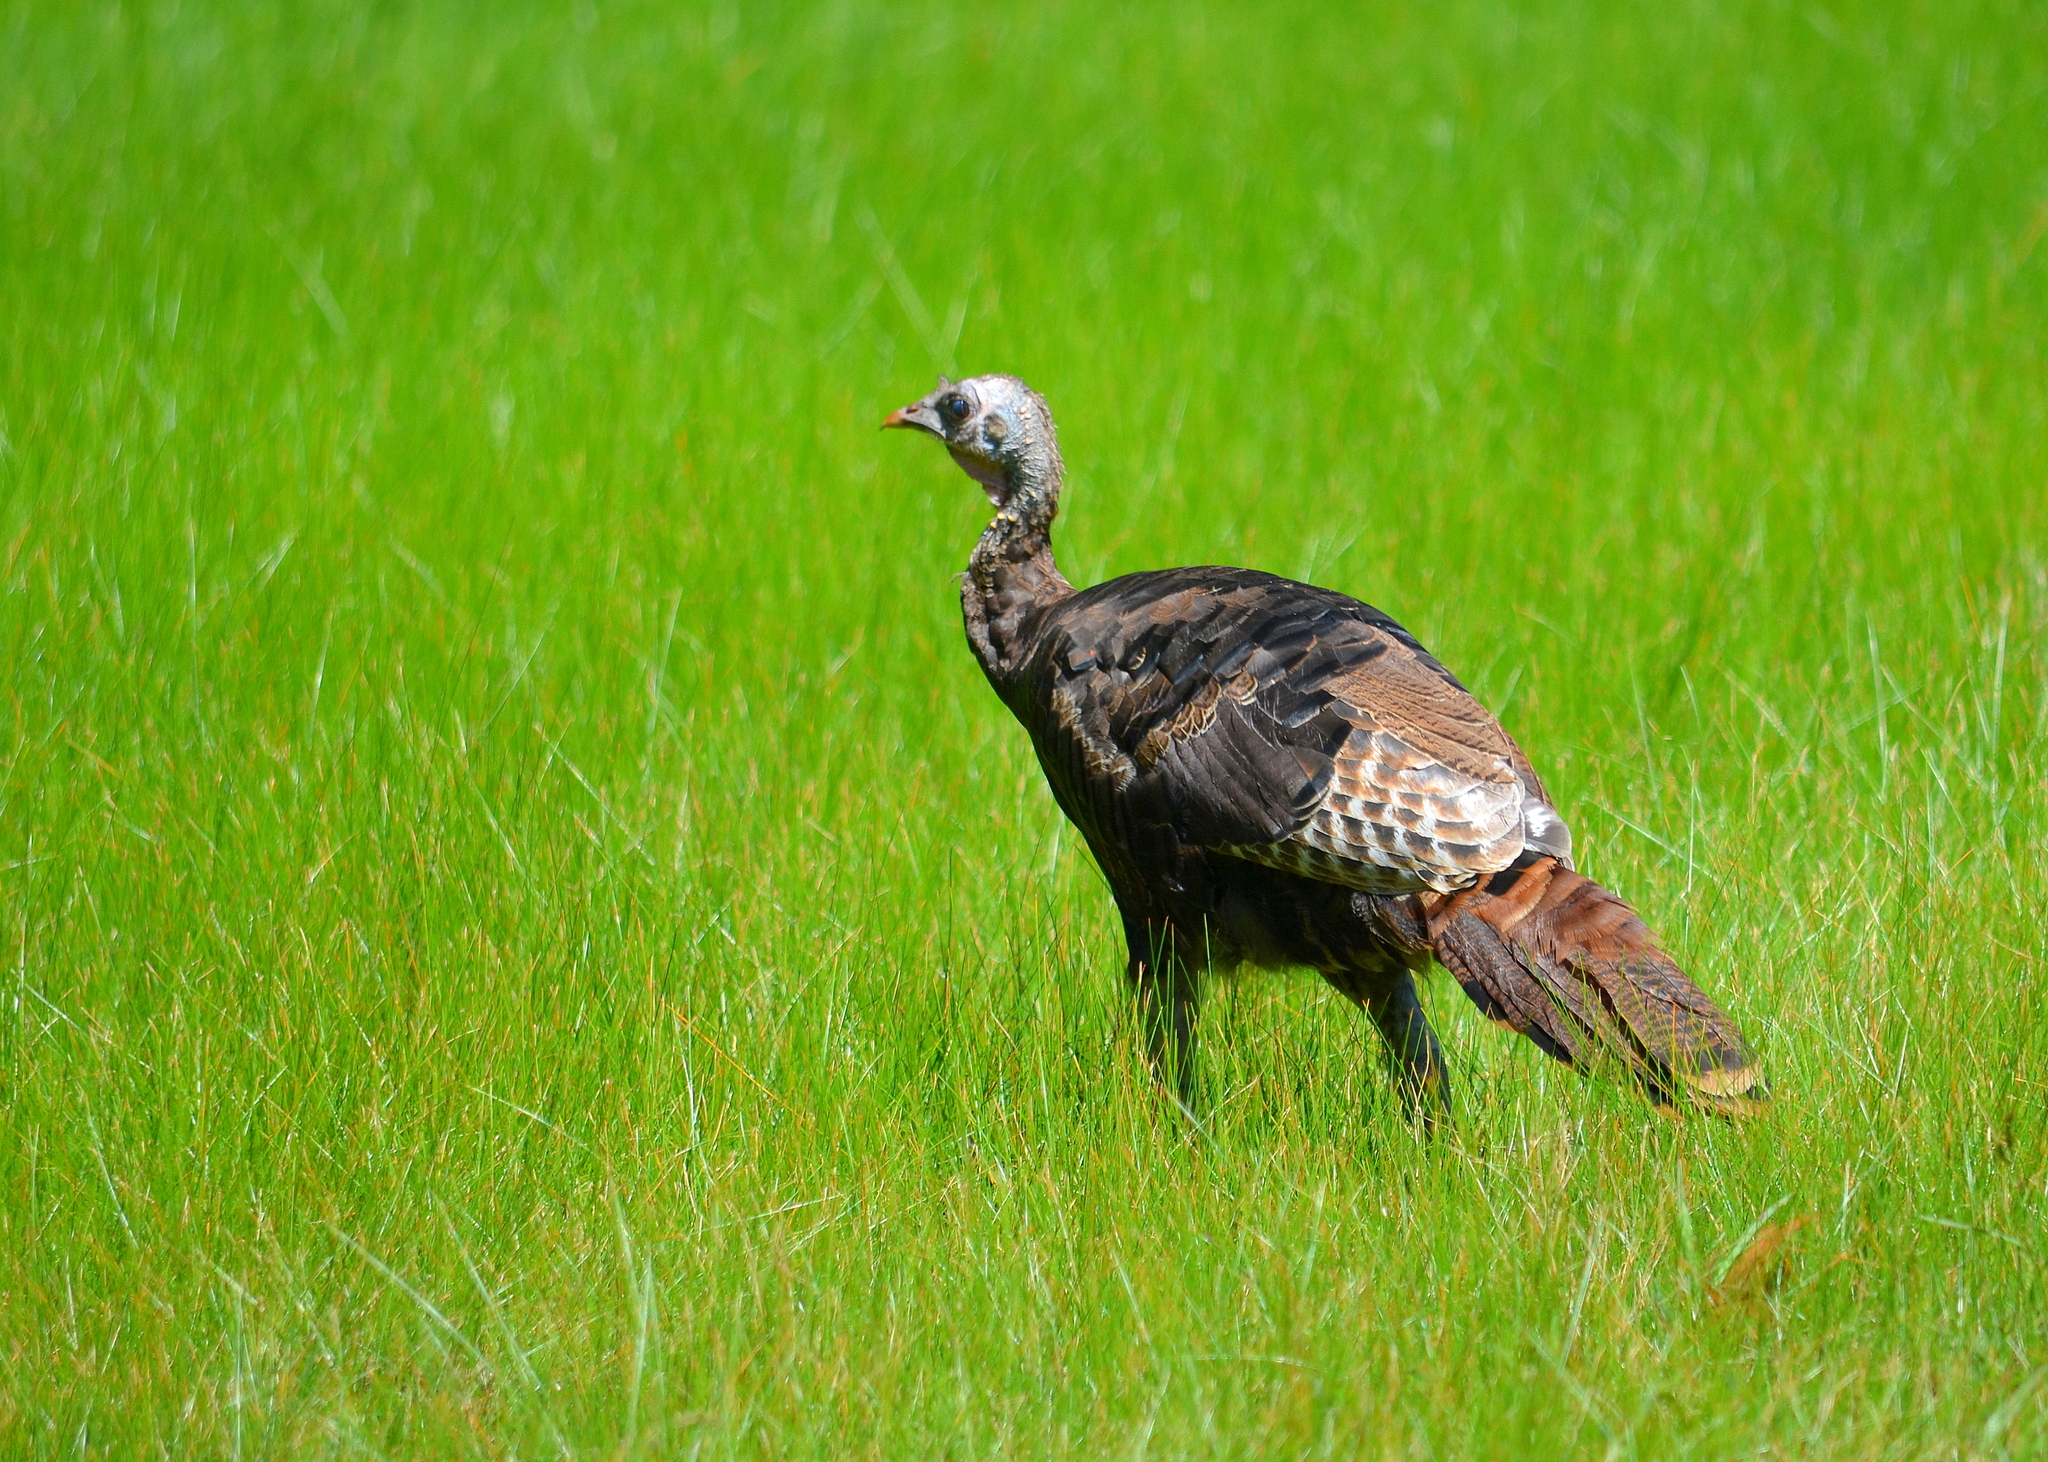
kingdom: Animalia
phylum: Chordata
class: Aves
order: Galliformes
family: Phasianidae
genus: Meleagris
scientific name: Meleagris gallopavo
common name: Wild turkey
